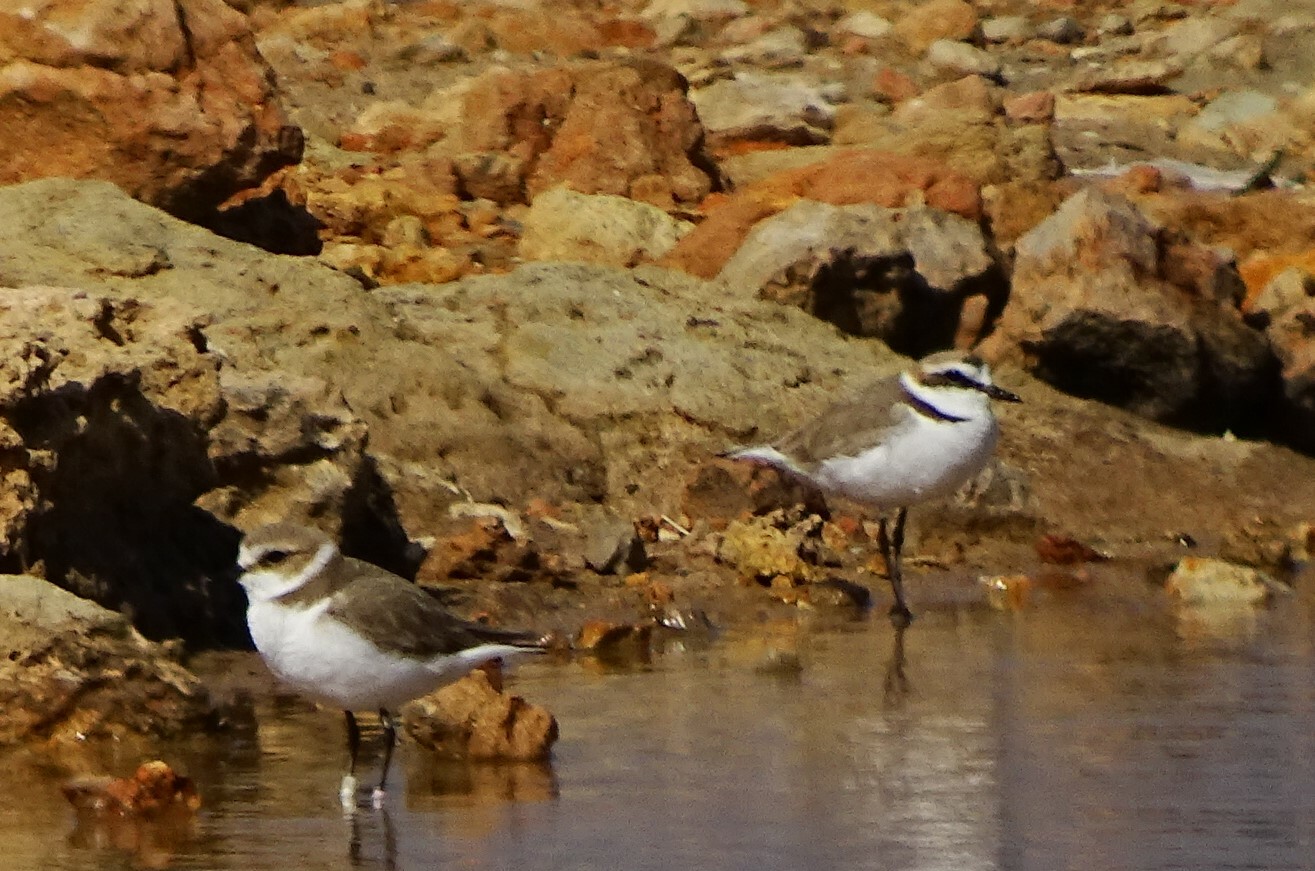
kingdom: Animalia
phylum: Chordata
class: Aves
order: Charadriiformes
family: Charadriidae
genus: Charadrius
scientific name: Charadrius alexandrinus
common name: Kentish plover
